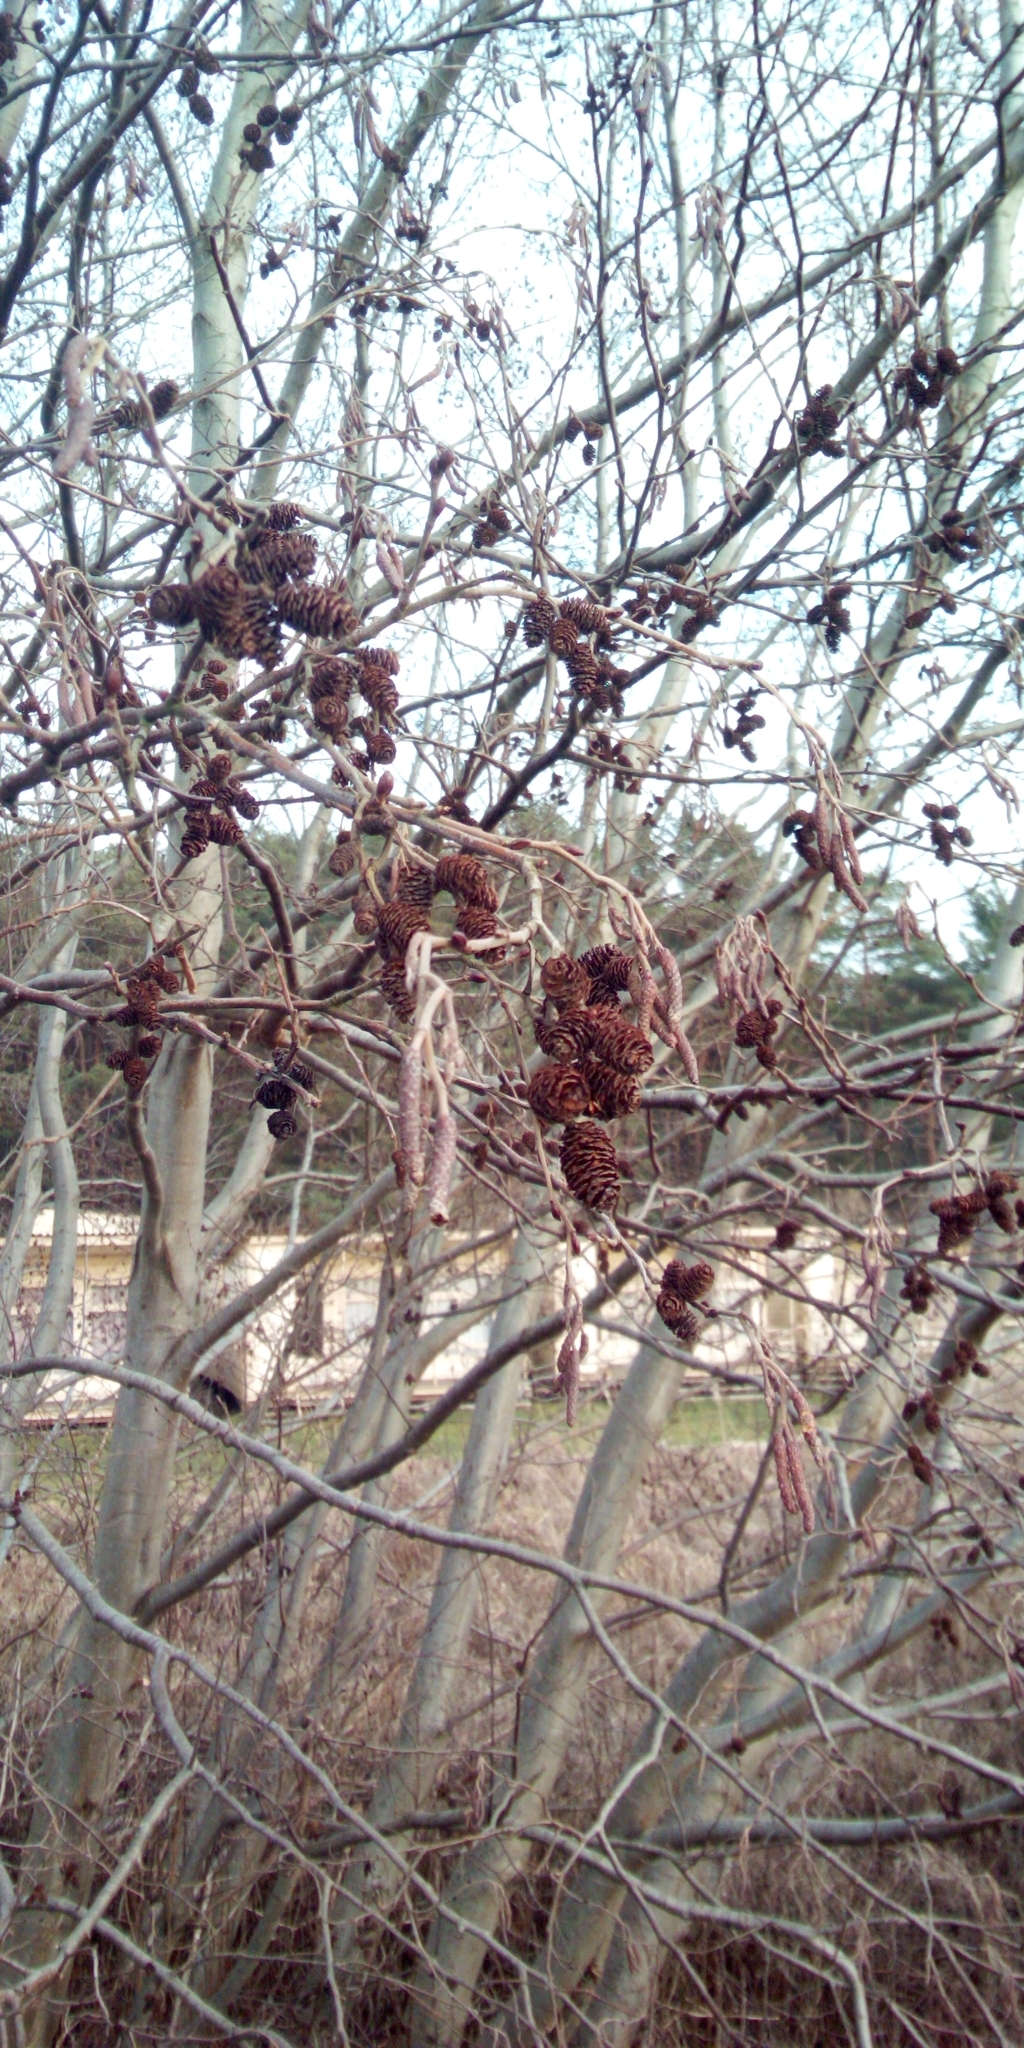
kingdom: Plantae
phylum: Tracheophyta
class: Magnoliopsida
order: Fagales
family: Betulaceae
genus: Alnus
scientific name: Alnus
